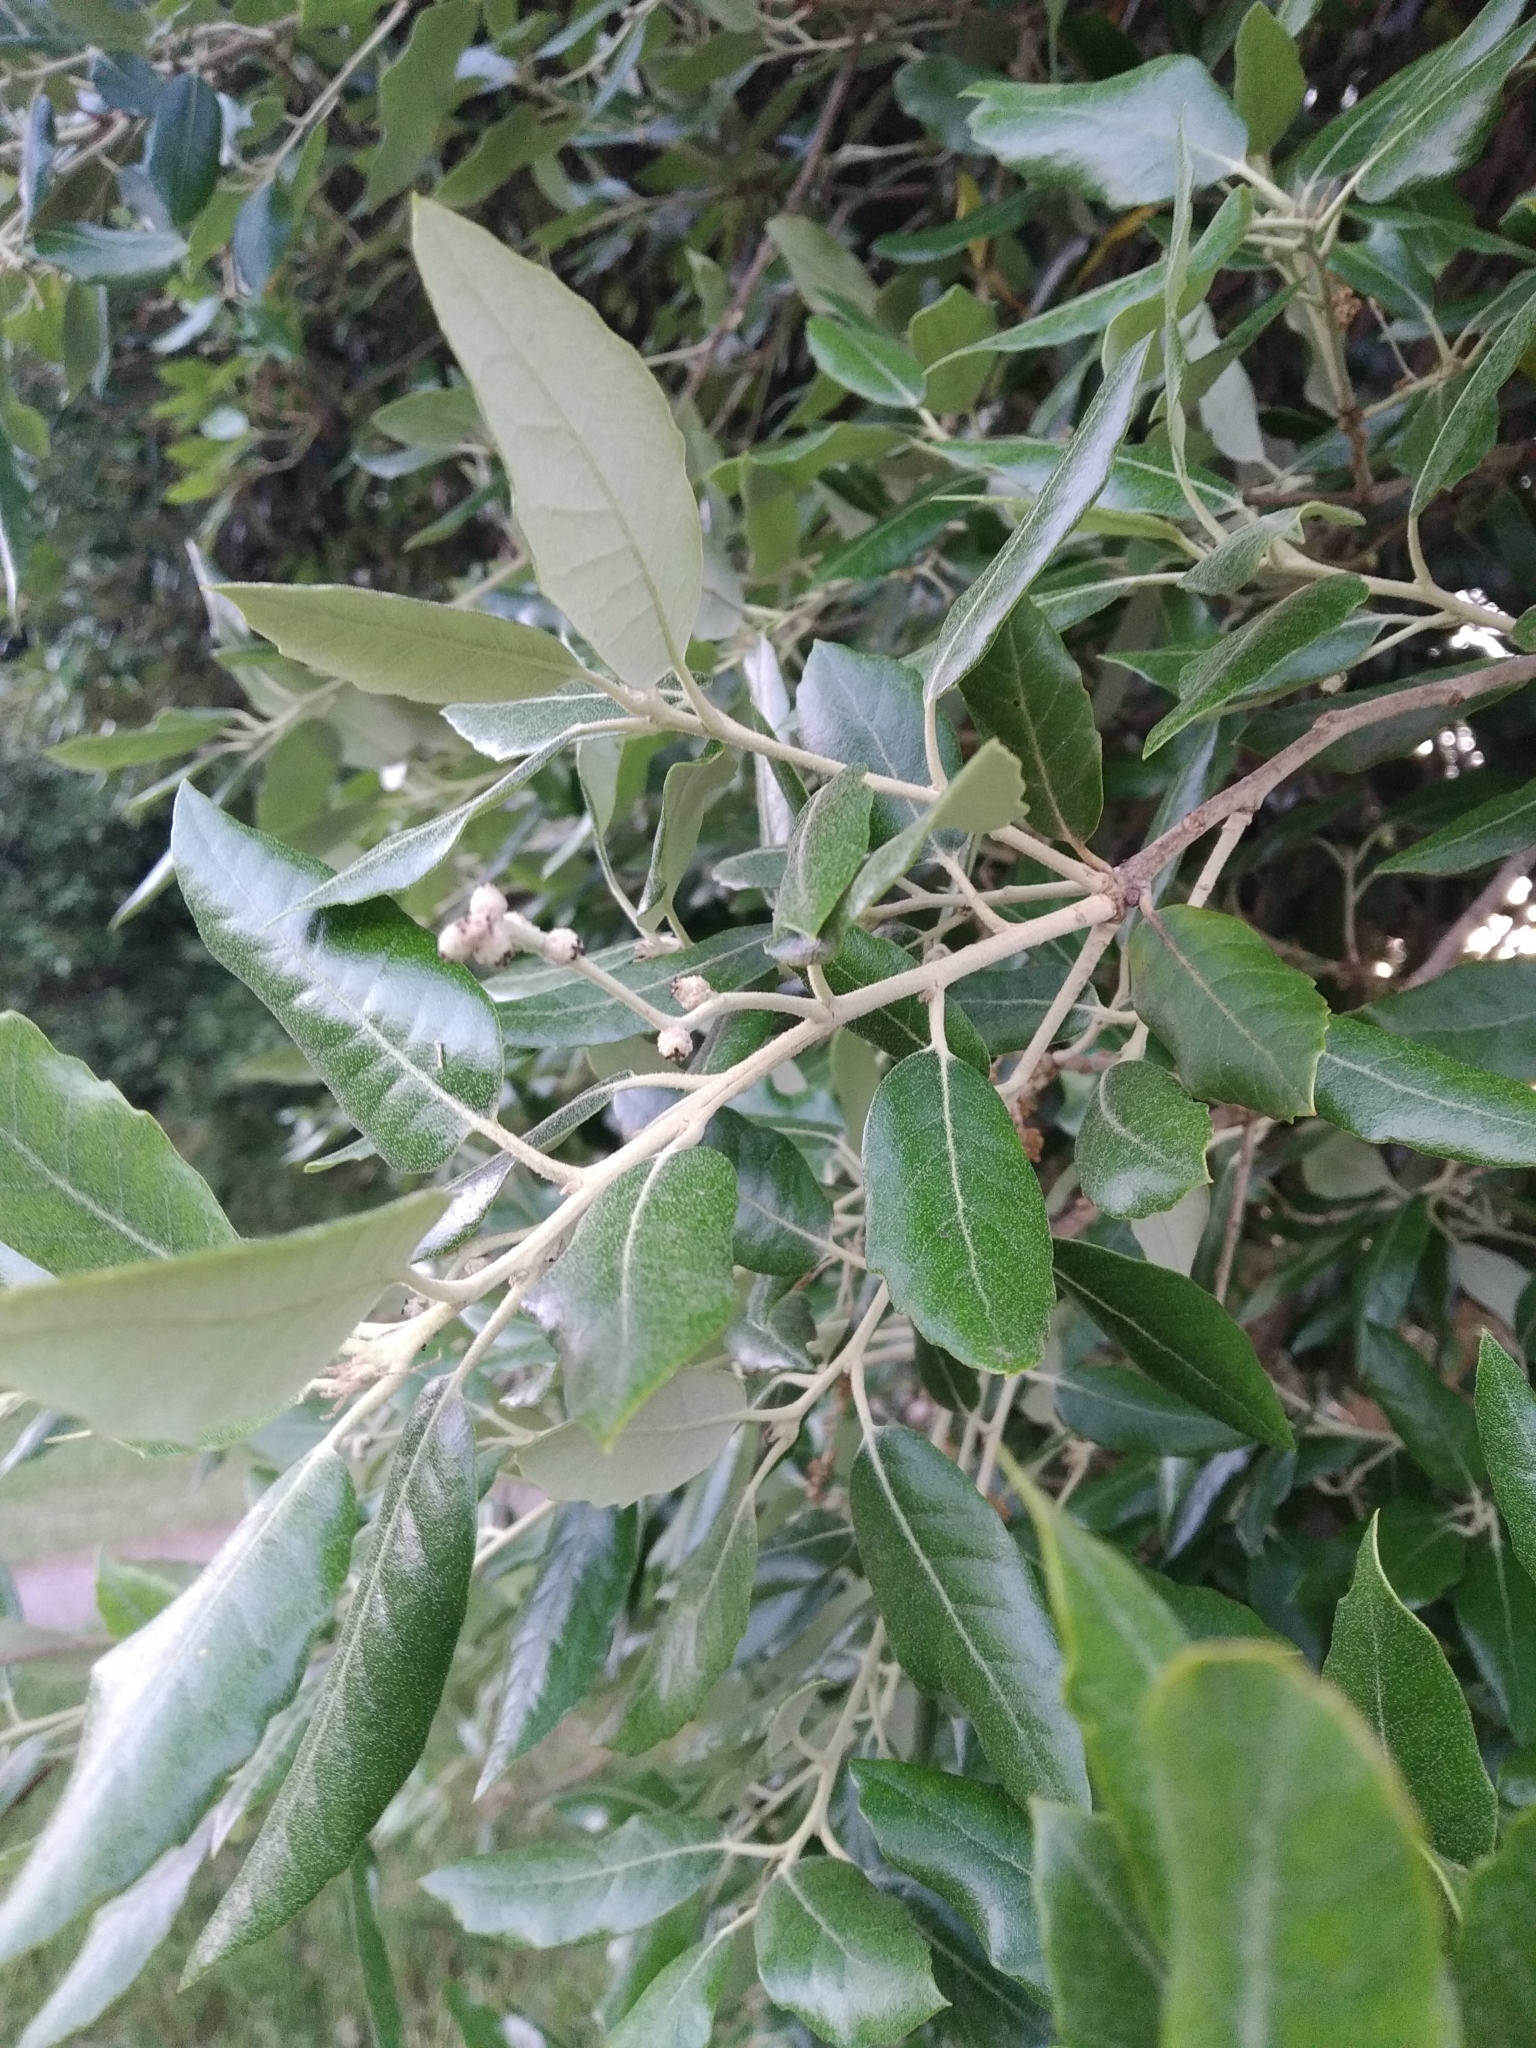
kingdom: Plantae
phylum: Tracheophyta
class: Magnoliopsida
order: Fagales
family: Fagaceae
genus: Quercus
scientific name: Quercus ilex
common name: Evergreen oak
